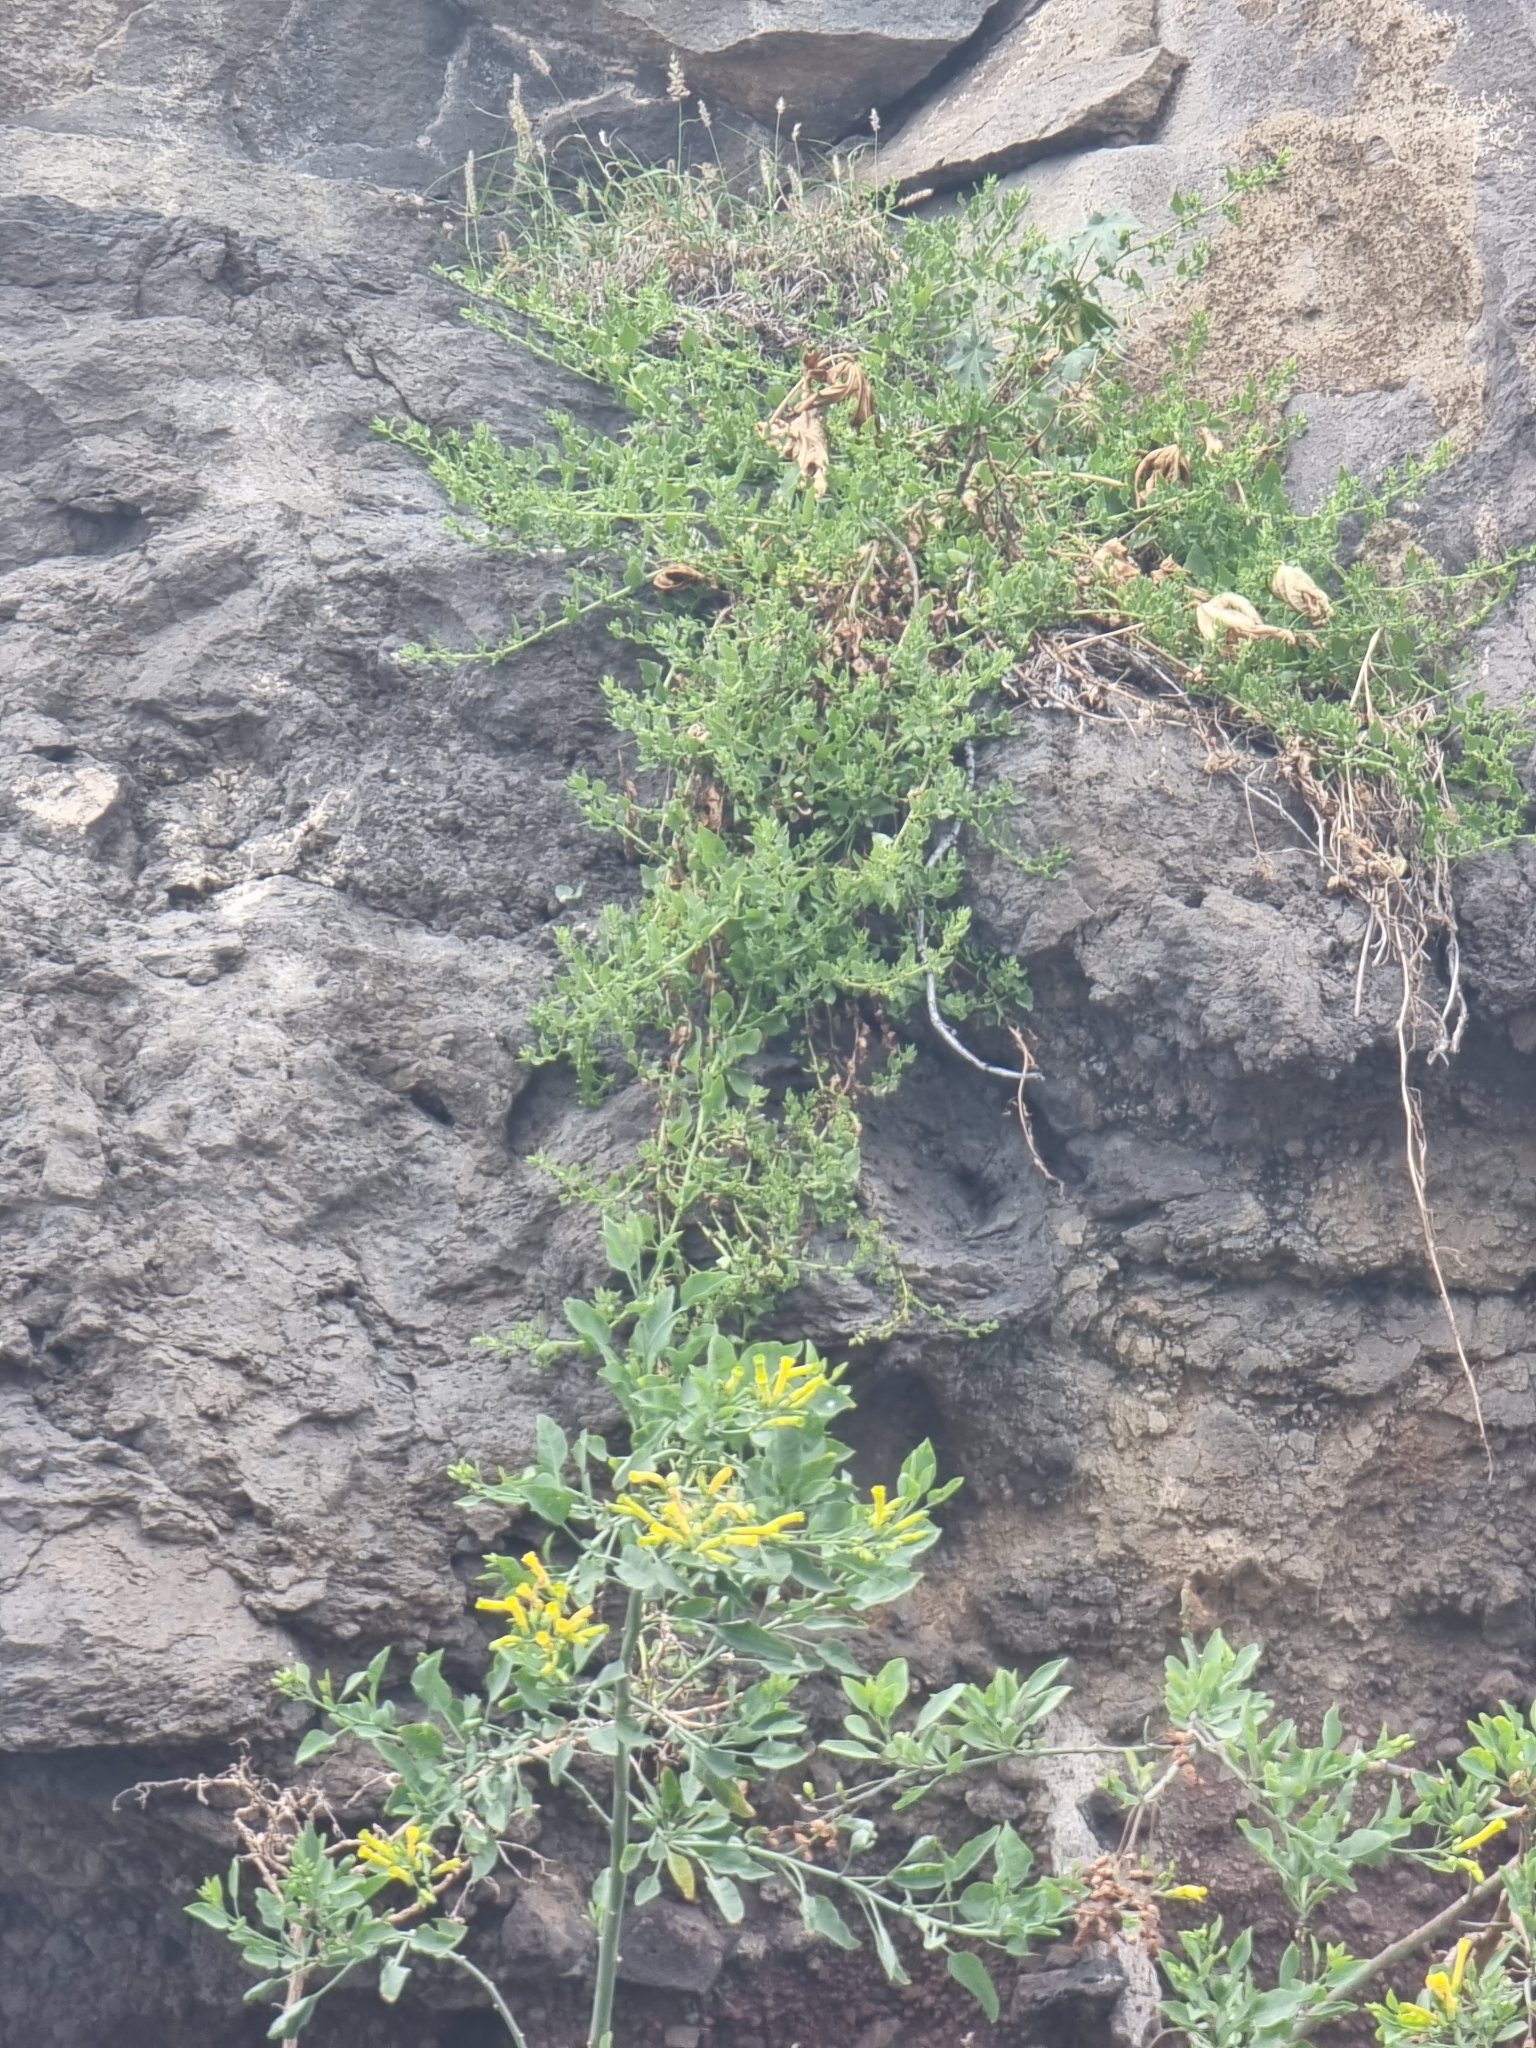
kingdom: Plantae
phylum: Tracheophyta
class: Magnoliopsida
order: Caryophyllales
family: Amaranthaceae
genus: Patellifolia
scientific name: Patellifolia procumbens
